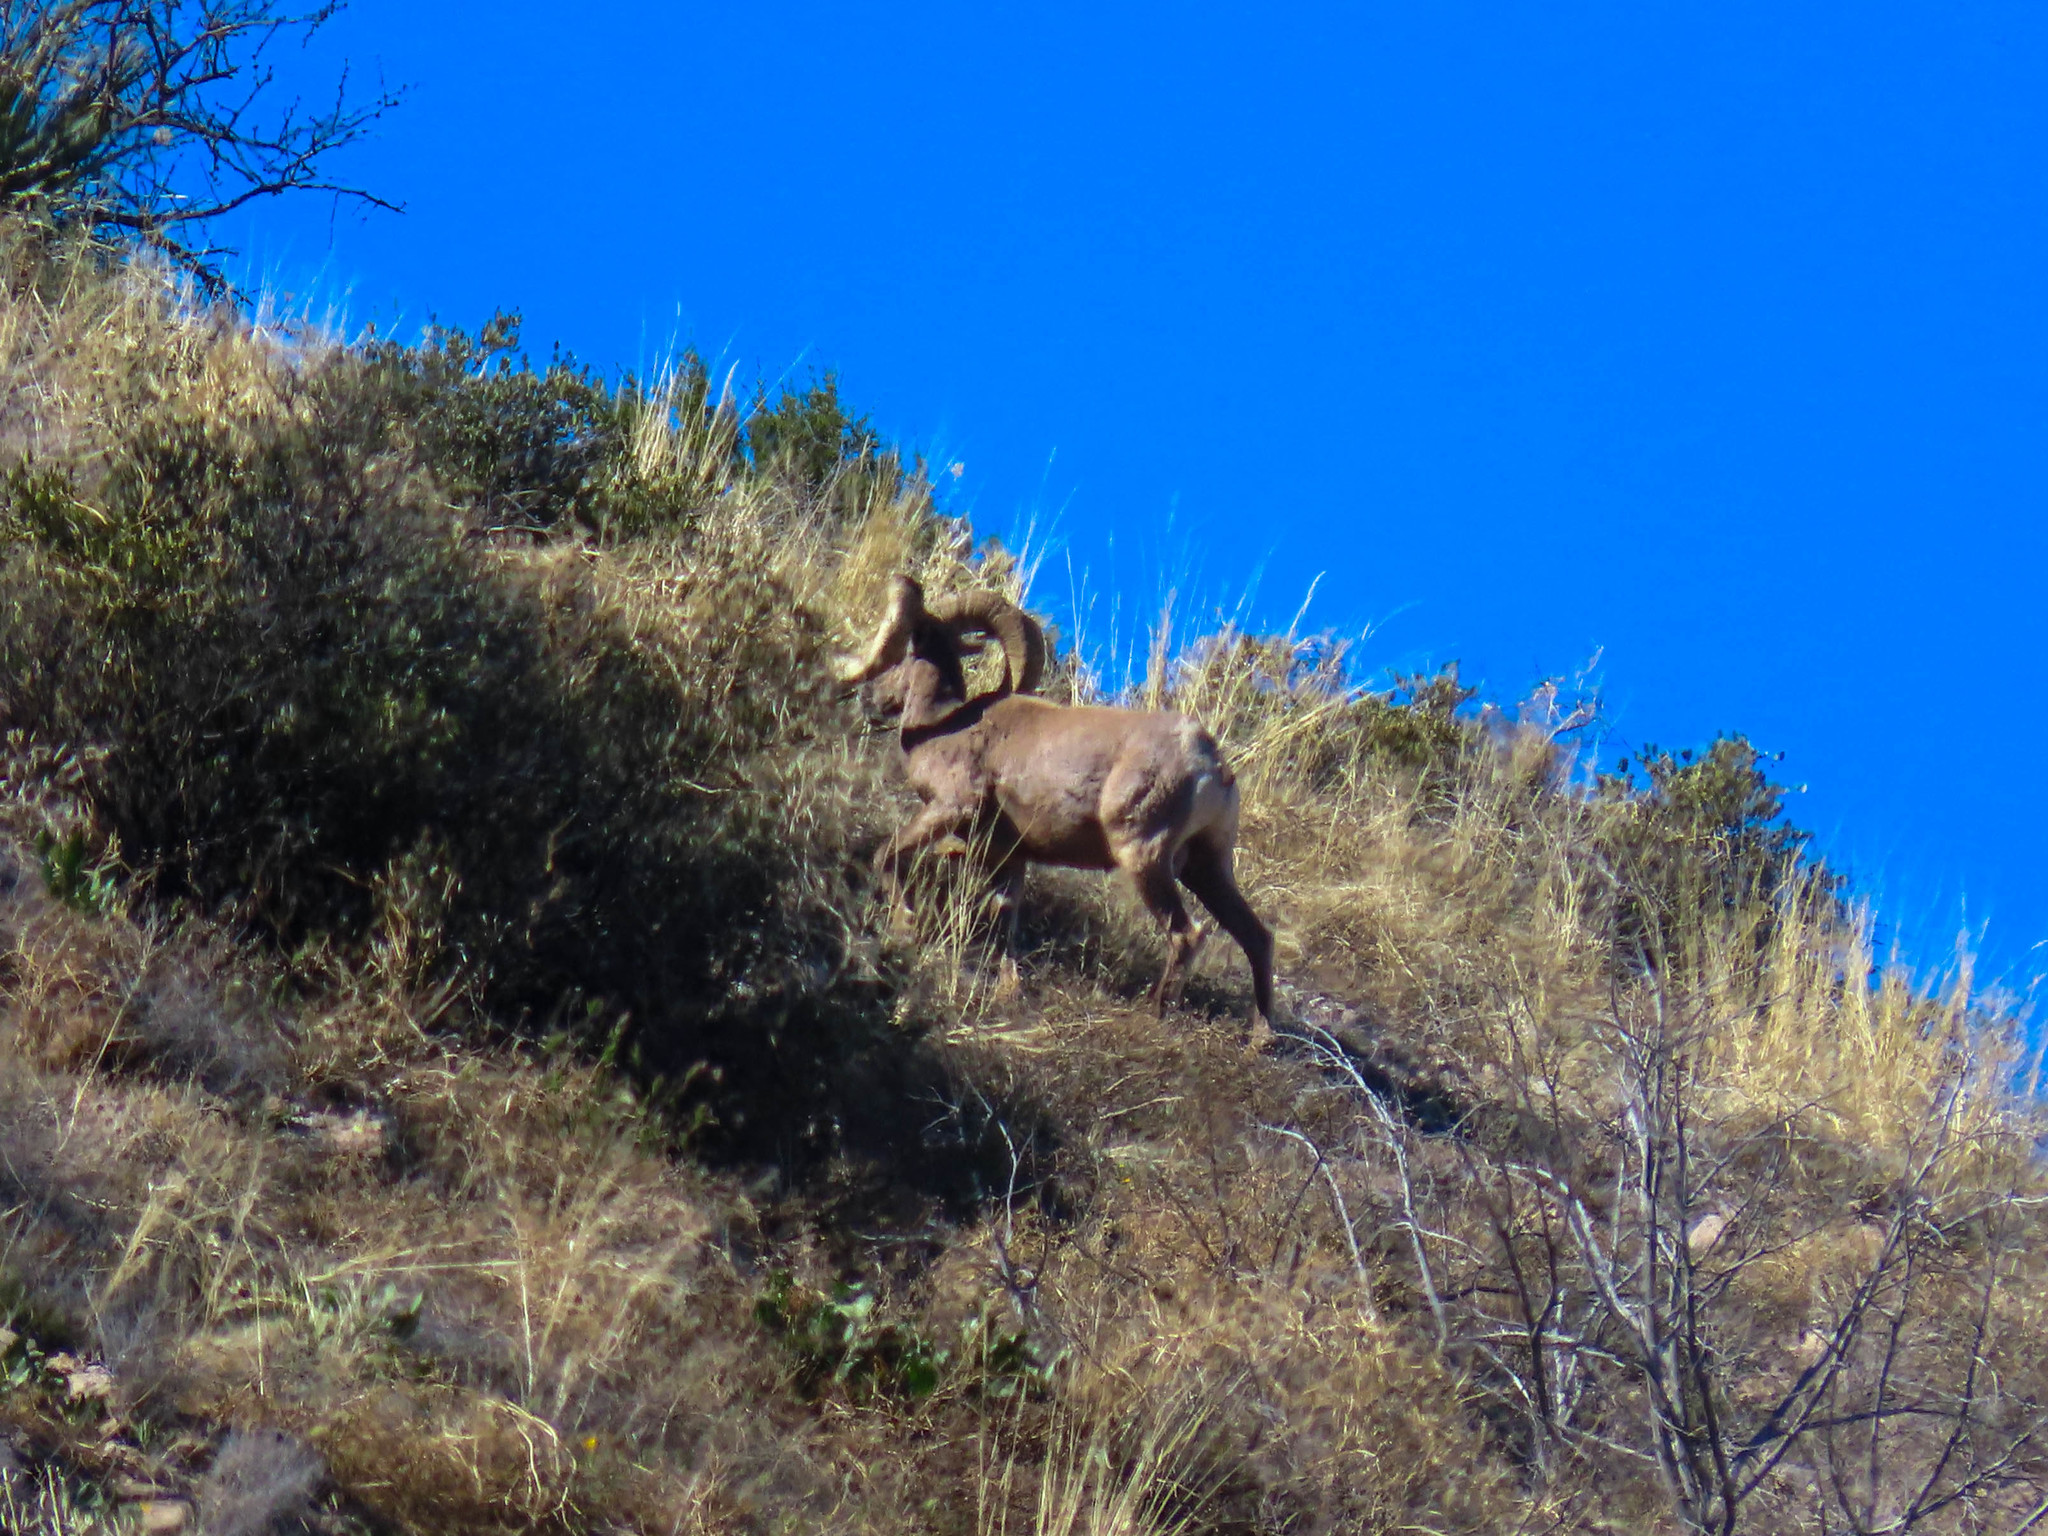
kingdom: Animalia
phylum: Chordata
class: Mammalia
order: Artiodactyla
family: Bovidae
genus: Ovis
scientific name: Ovis canadensis
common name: Bighorn sheep
